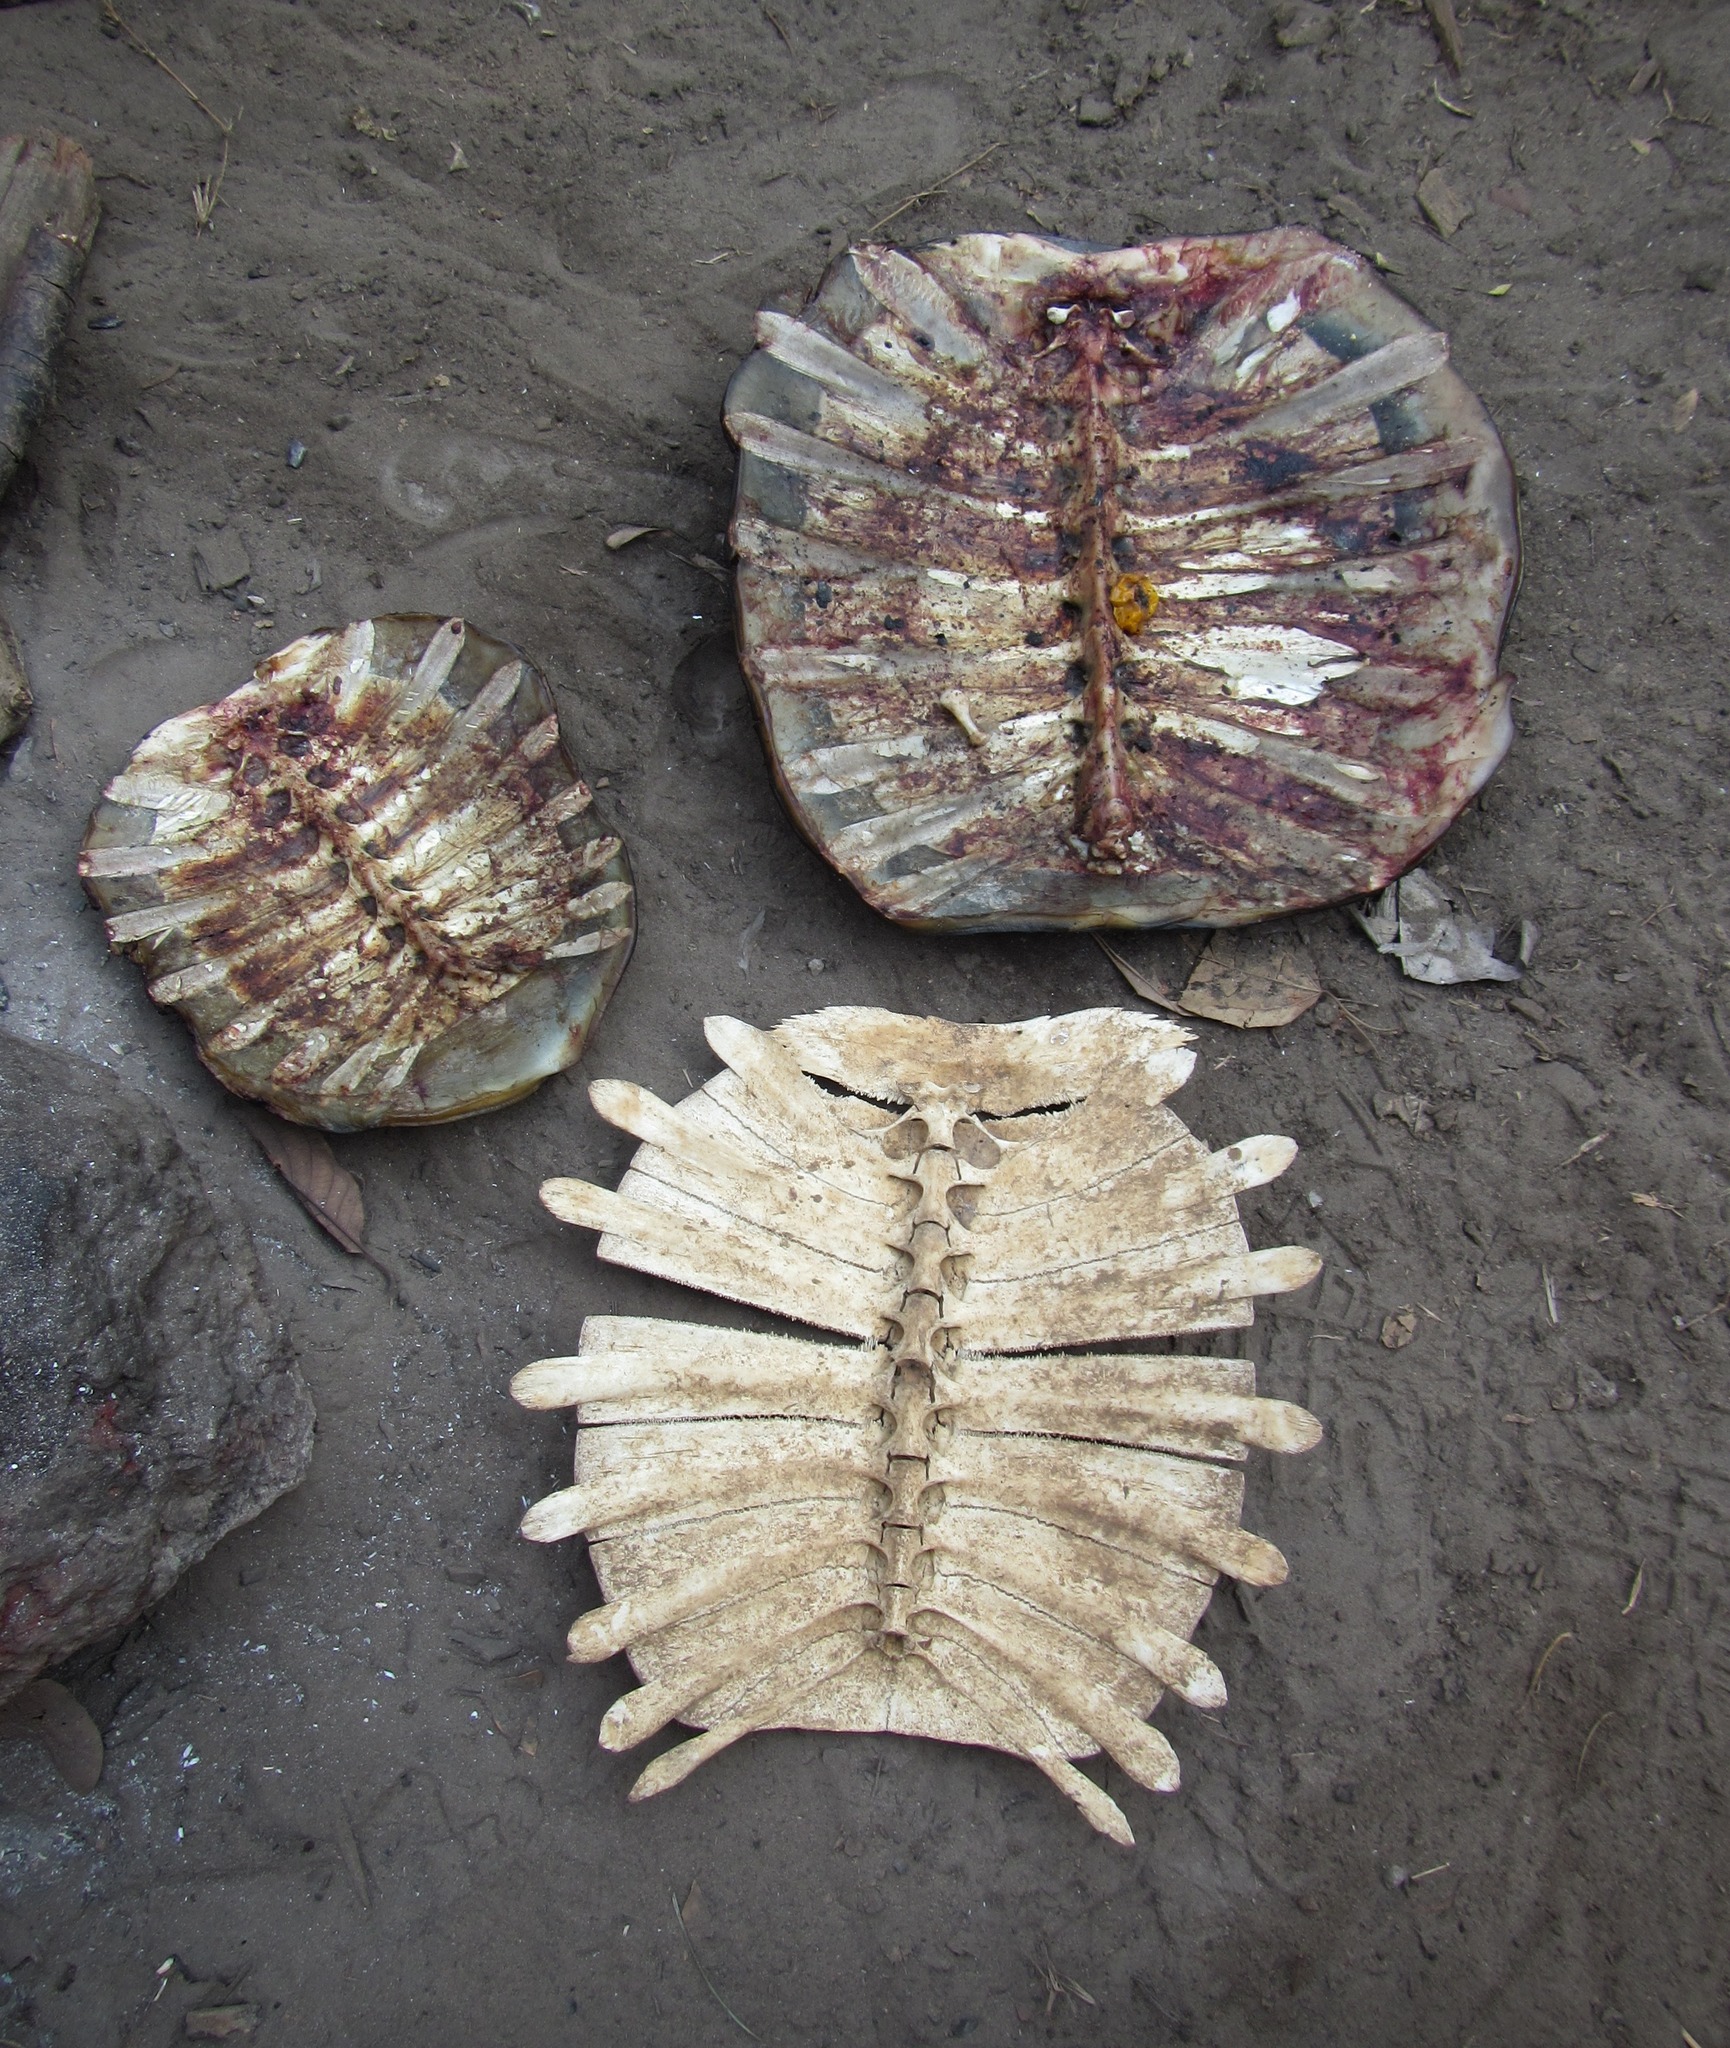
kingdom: Animalia
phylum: Chordata
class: Testudines
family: Trionychidae
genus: Cycloderma
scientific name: Cycloderma aubryi
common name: Aubry’s soft-shelled turtle
